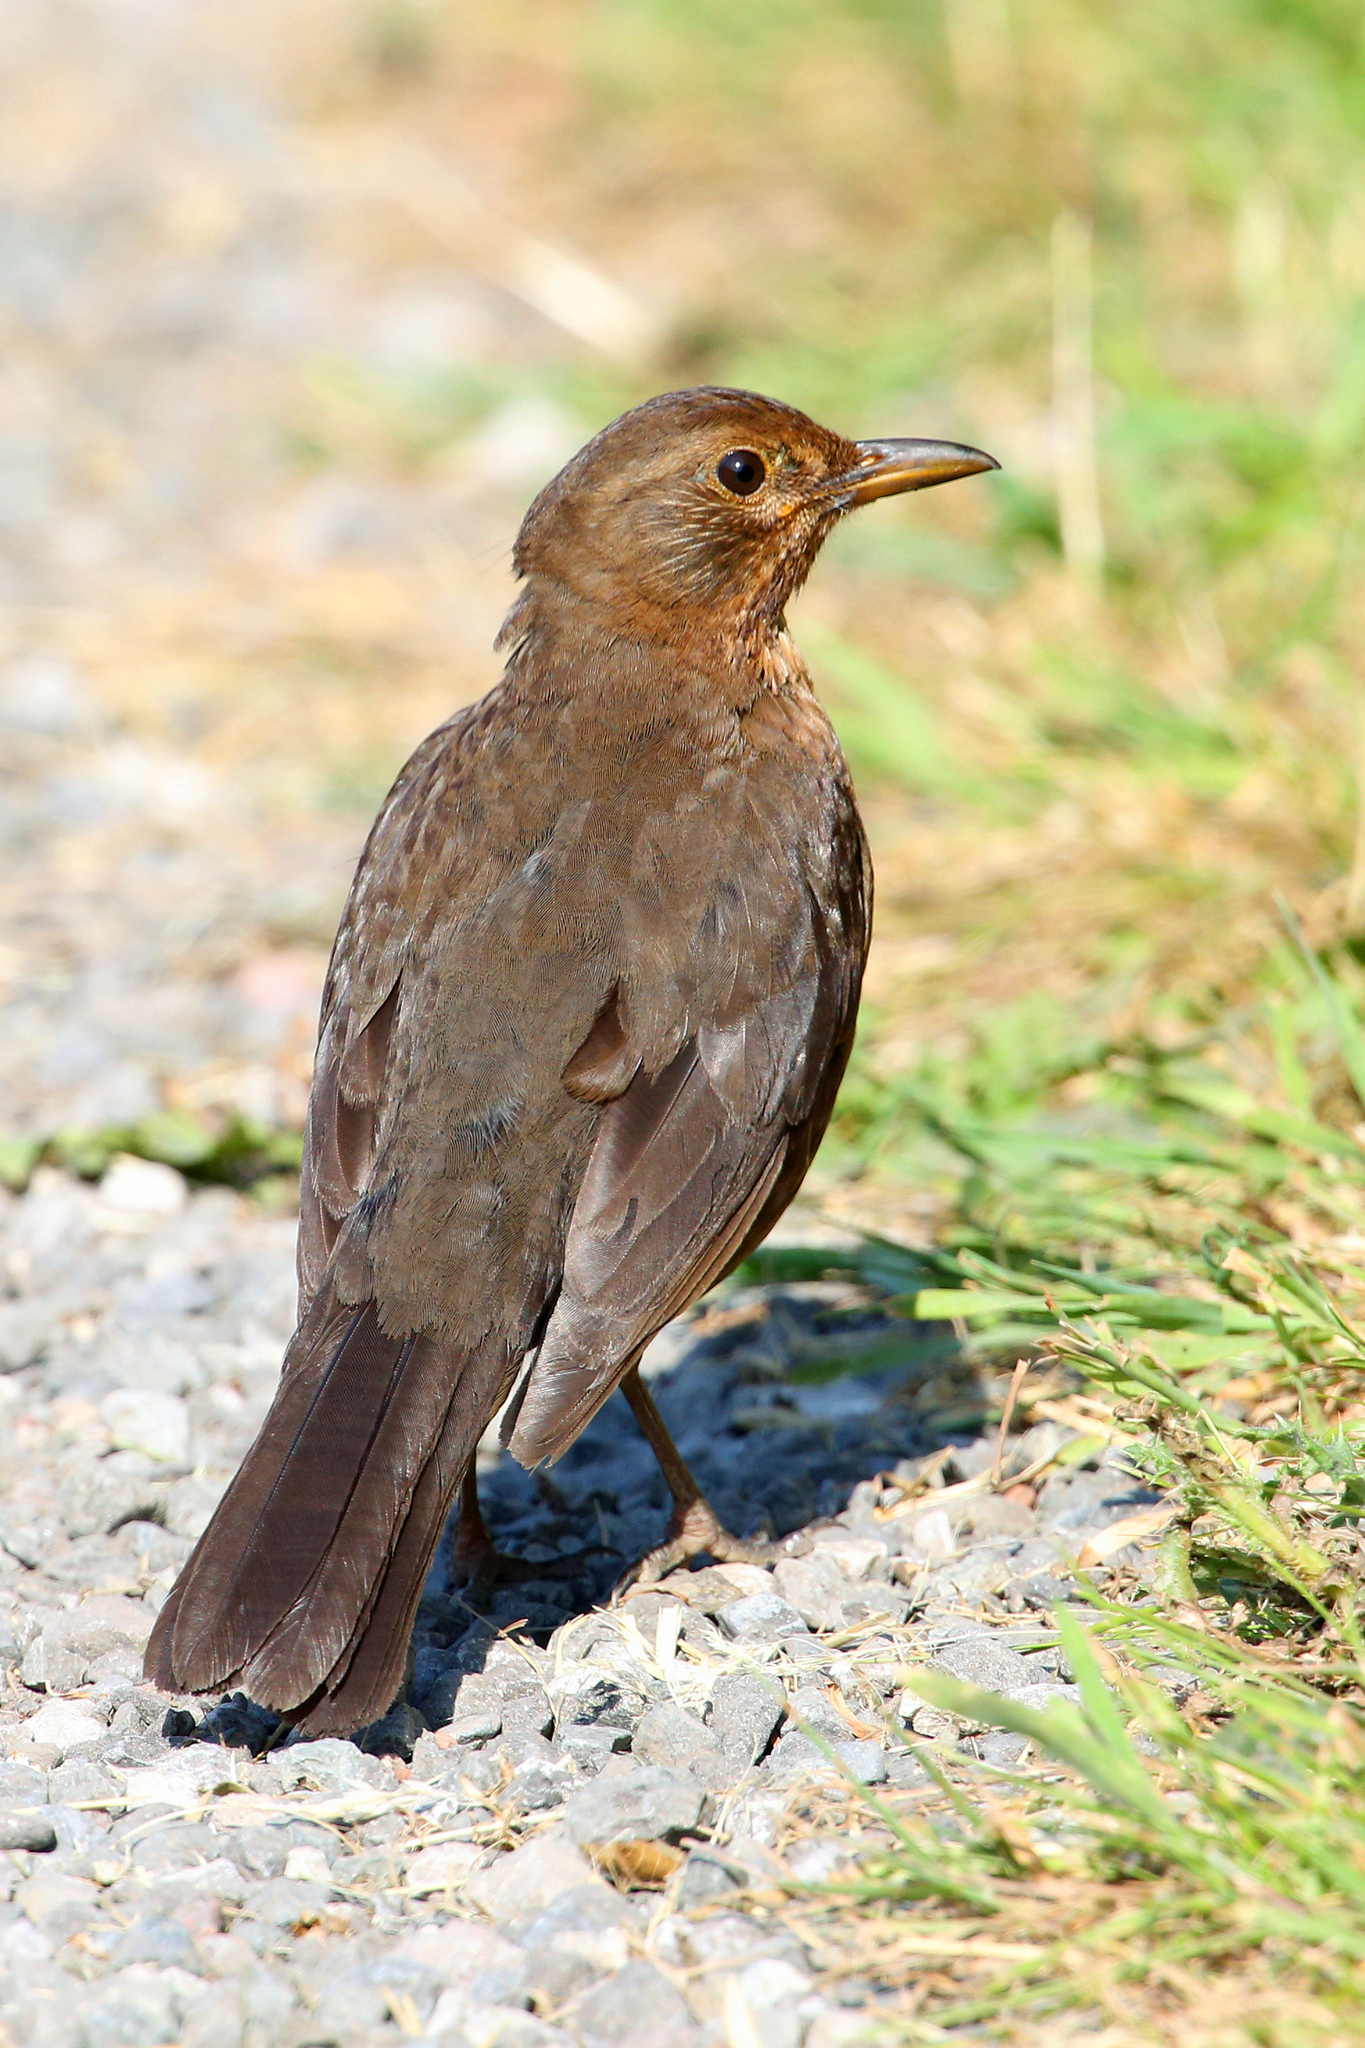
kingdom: Animalia
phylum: Chordata
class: Aves
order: Passeriformes
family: Turdidae
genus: Turdus
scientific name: Turdus merula
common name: Common blackbird
